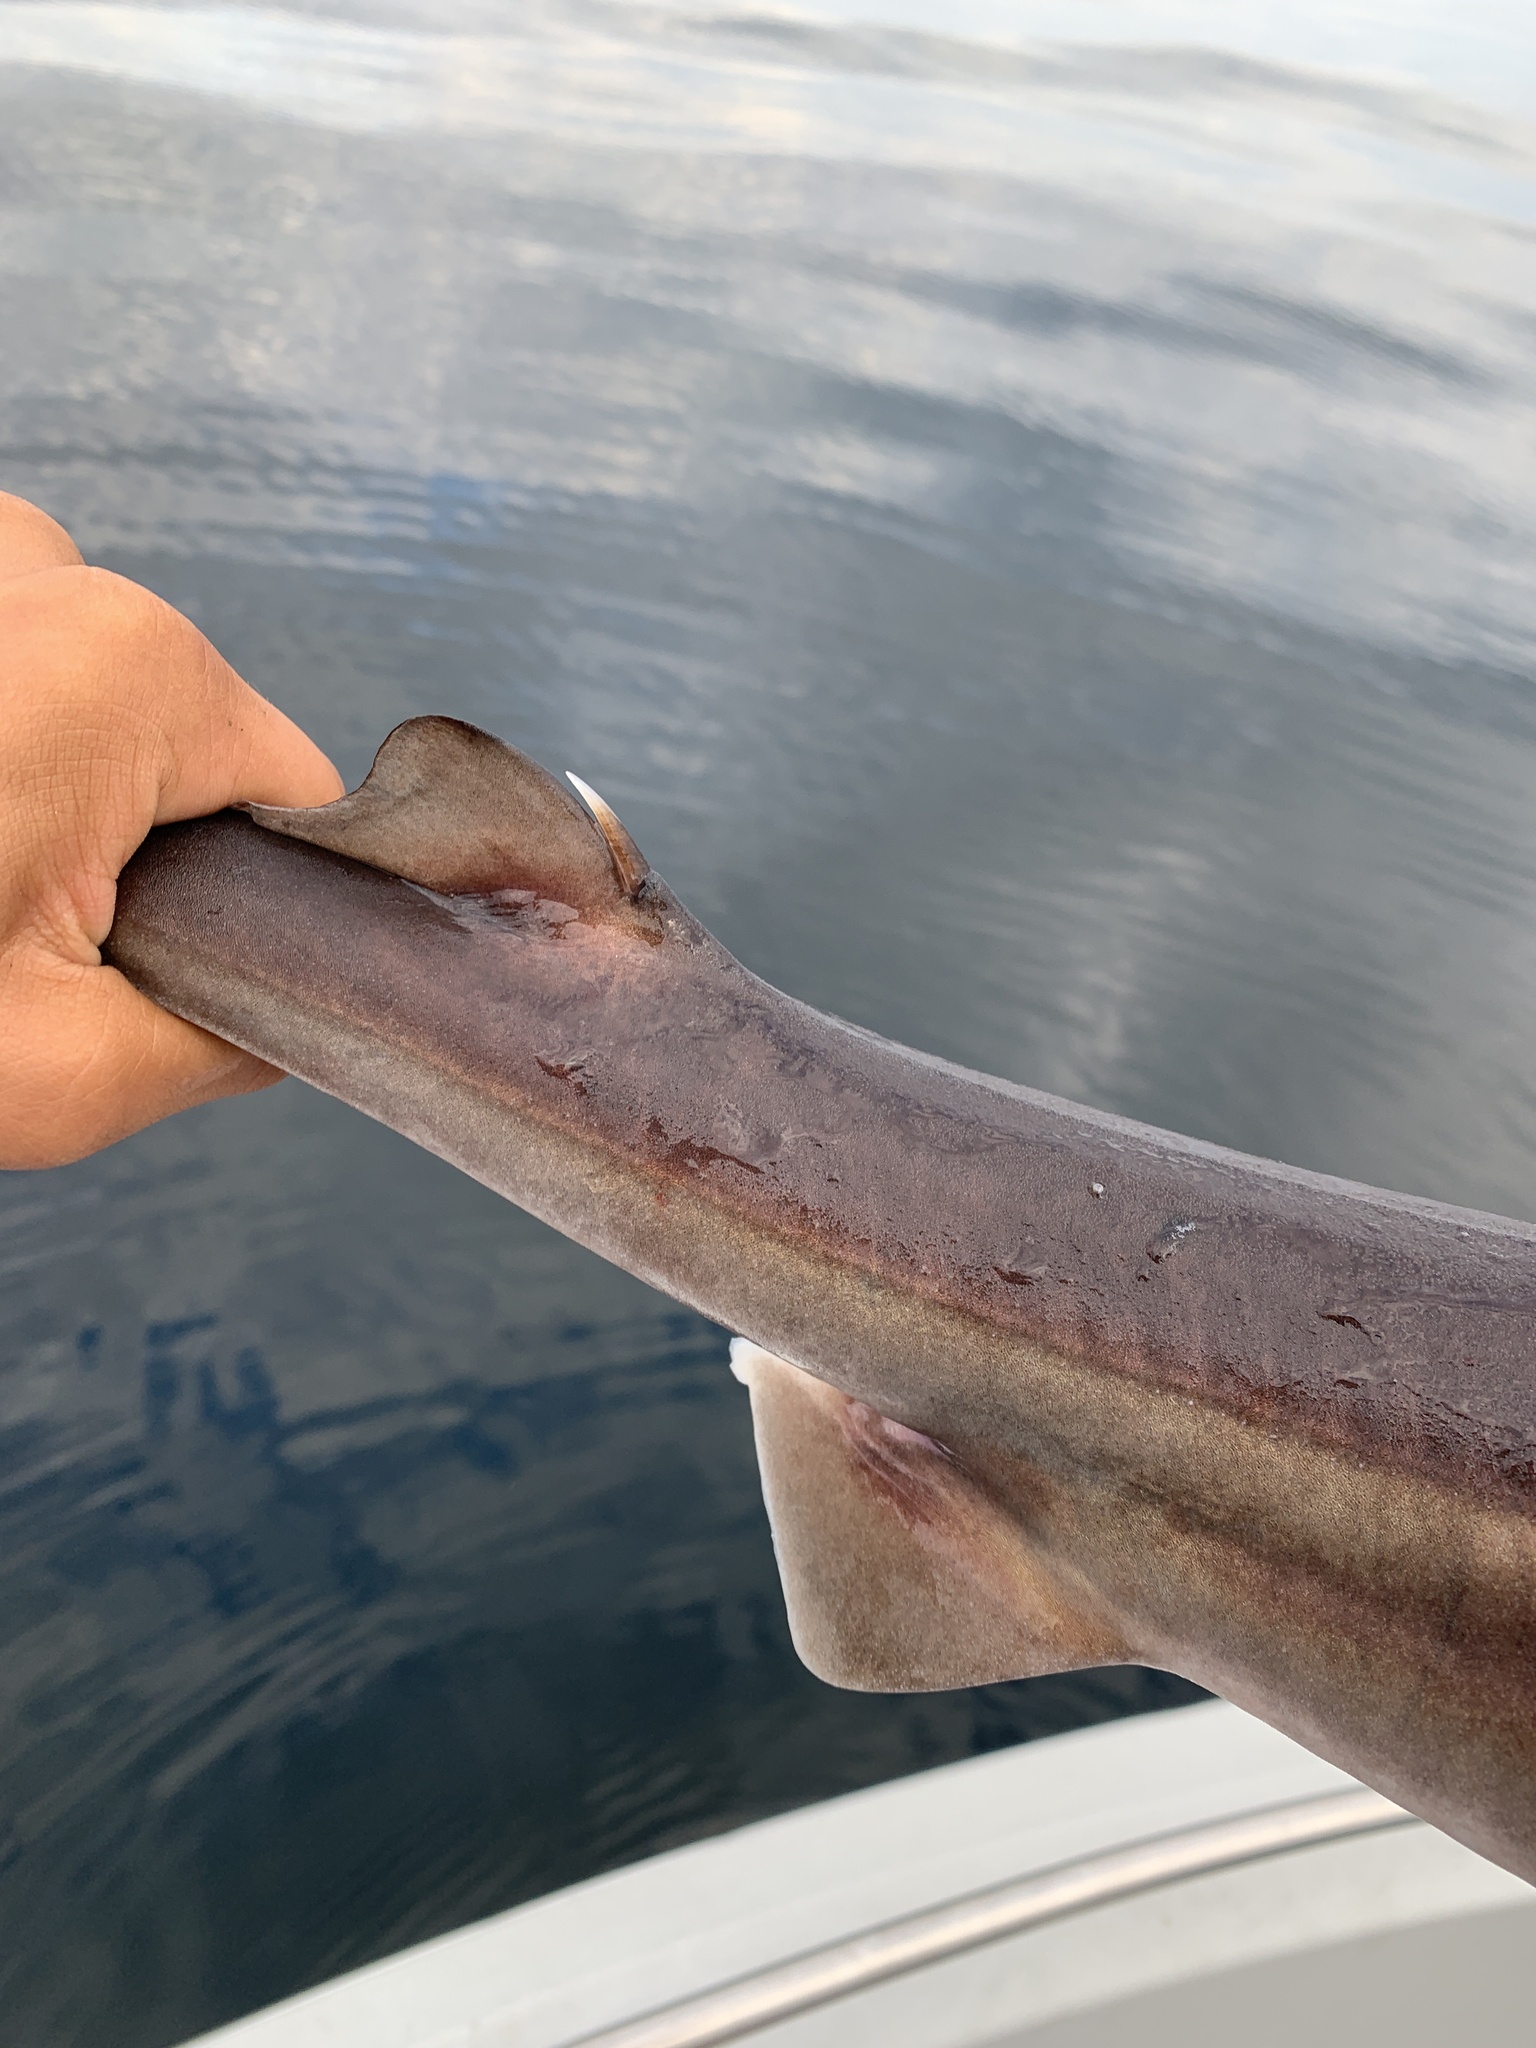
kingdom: Animalia
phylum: Chordata
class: Elasmobranchii
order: Squaliformes
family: Squalidae
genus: Squalus
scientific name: Squalus suckleyi
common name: Spiny dogfish
